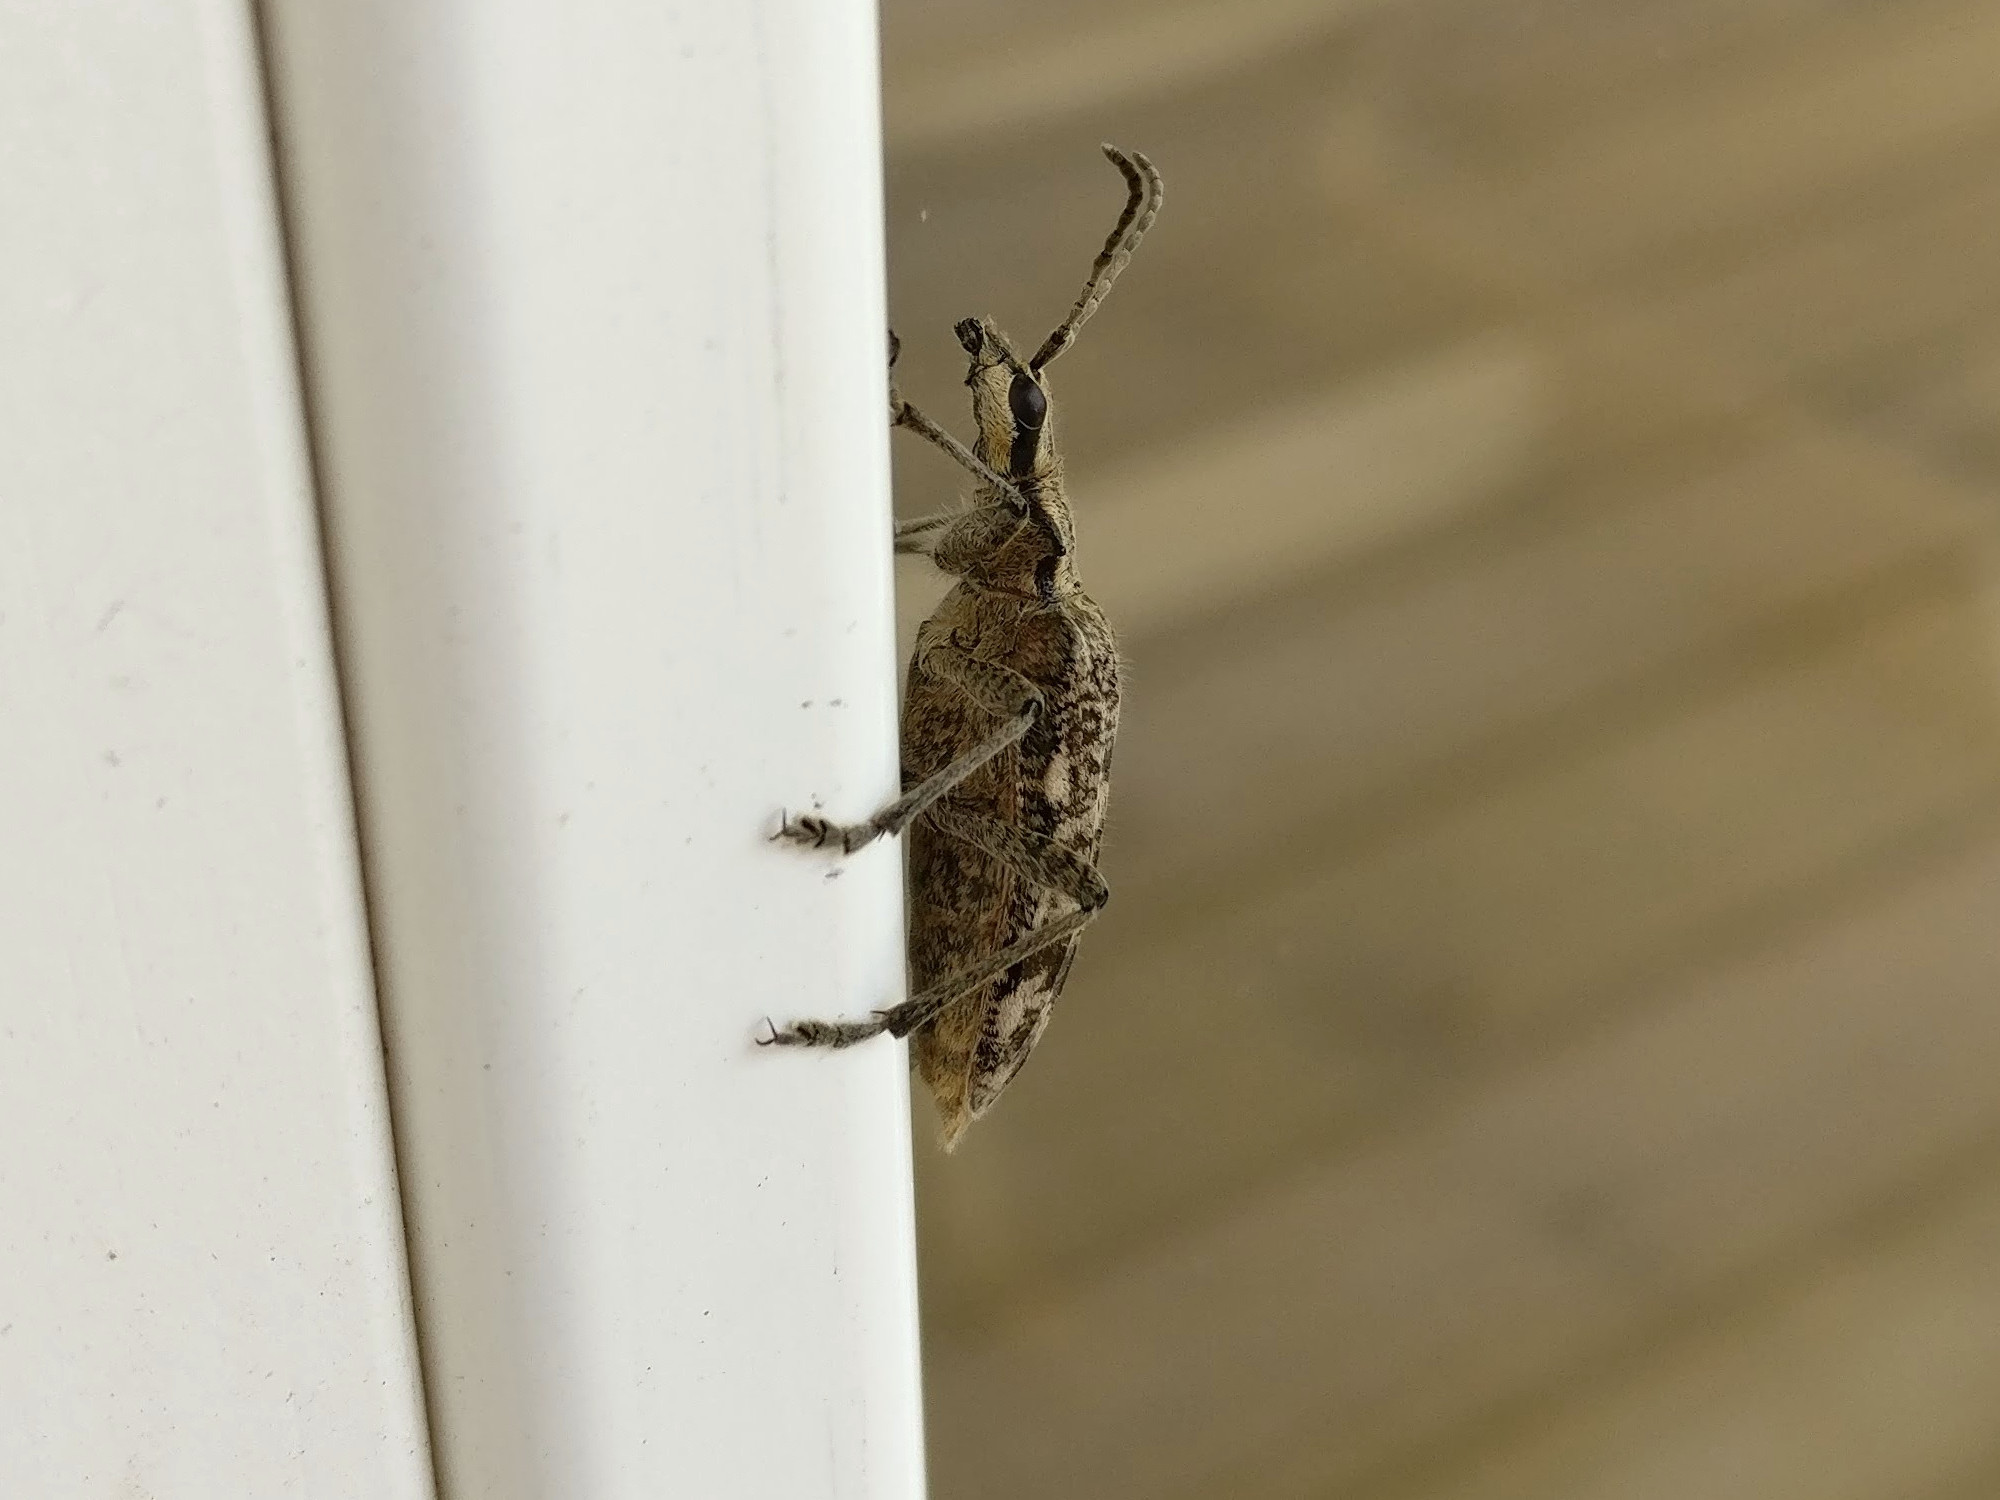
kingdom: Animalia
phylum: Arthropoda
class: Insecta
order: Coleoptera
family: Cerambycidae
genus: Rhagium
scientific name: Rhagium inquisitor
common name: Ribbed pine borer
